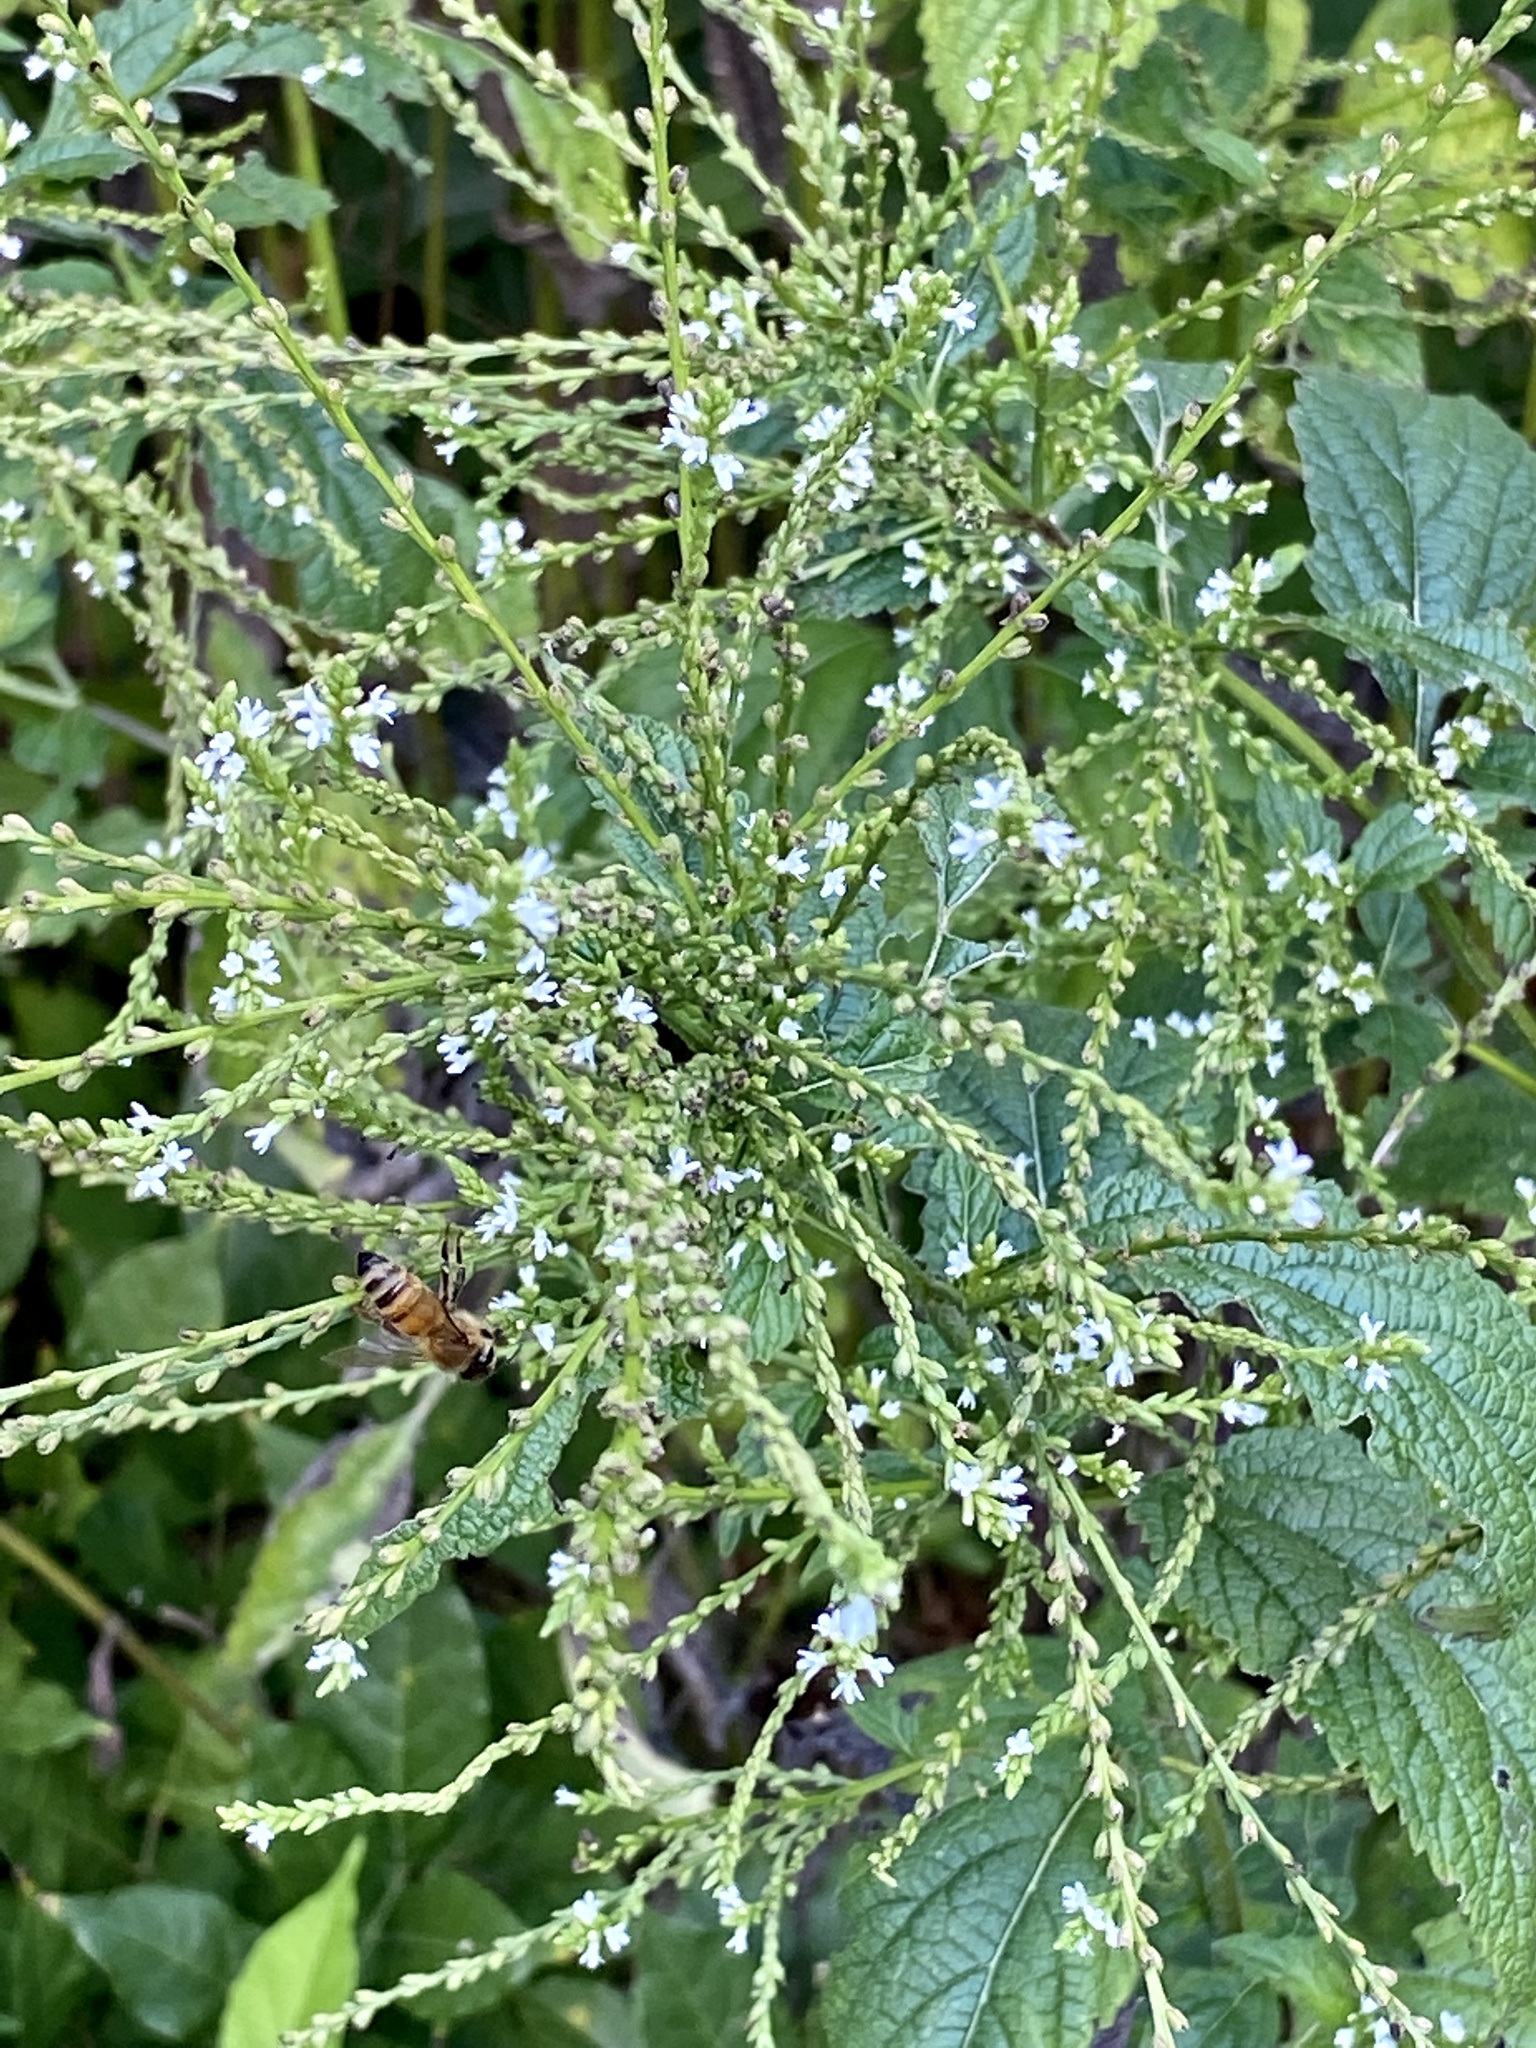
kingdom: Plantae
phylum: Tracheophyta
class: Magnoliopsida
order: Lamiales
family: Verbenaceae
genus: Verbena
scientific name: Verbena urticifolia
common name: Nettle-leaved vervain
